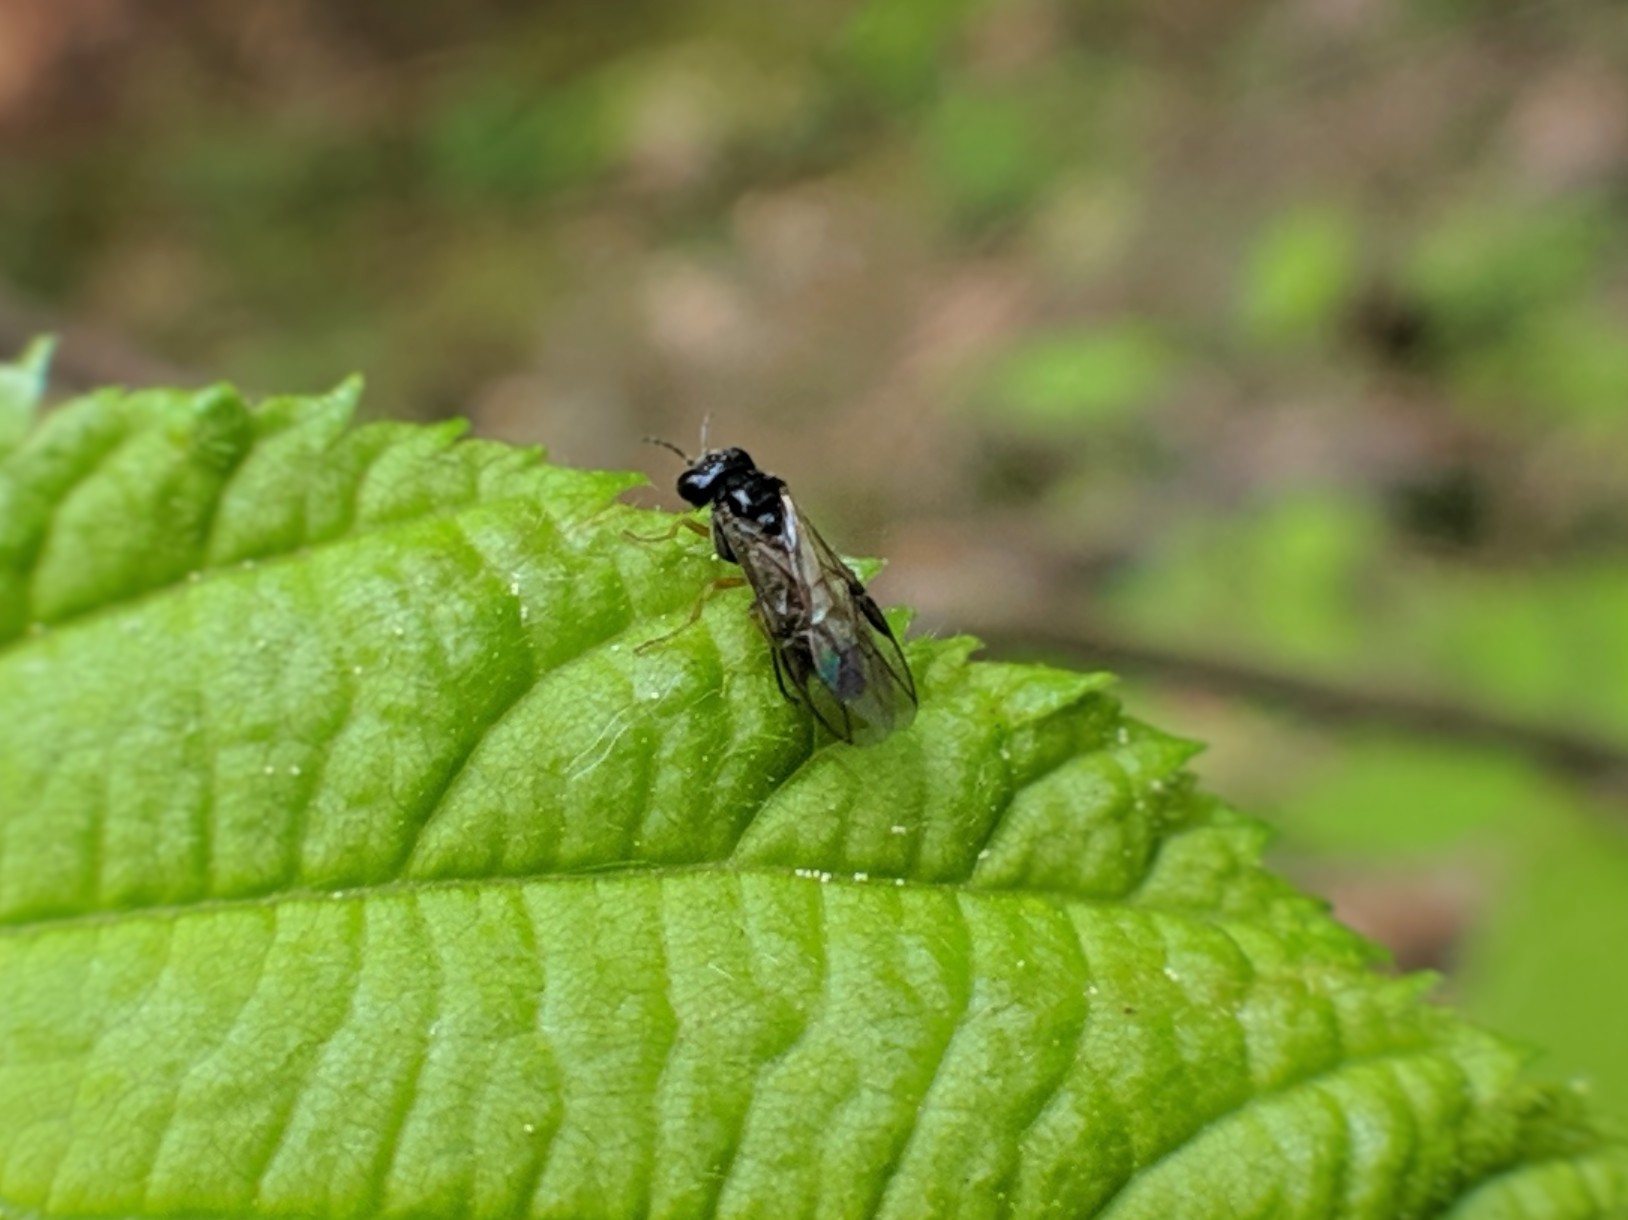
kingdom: Animalia
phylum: Arthropoda
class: Insecta
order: Hymenoptera
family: Pergidae
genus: Acordulecera
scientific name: Acordulecera dorsalis
